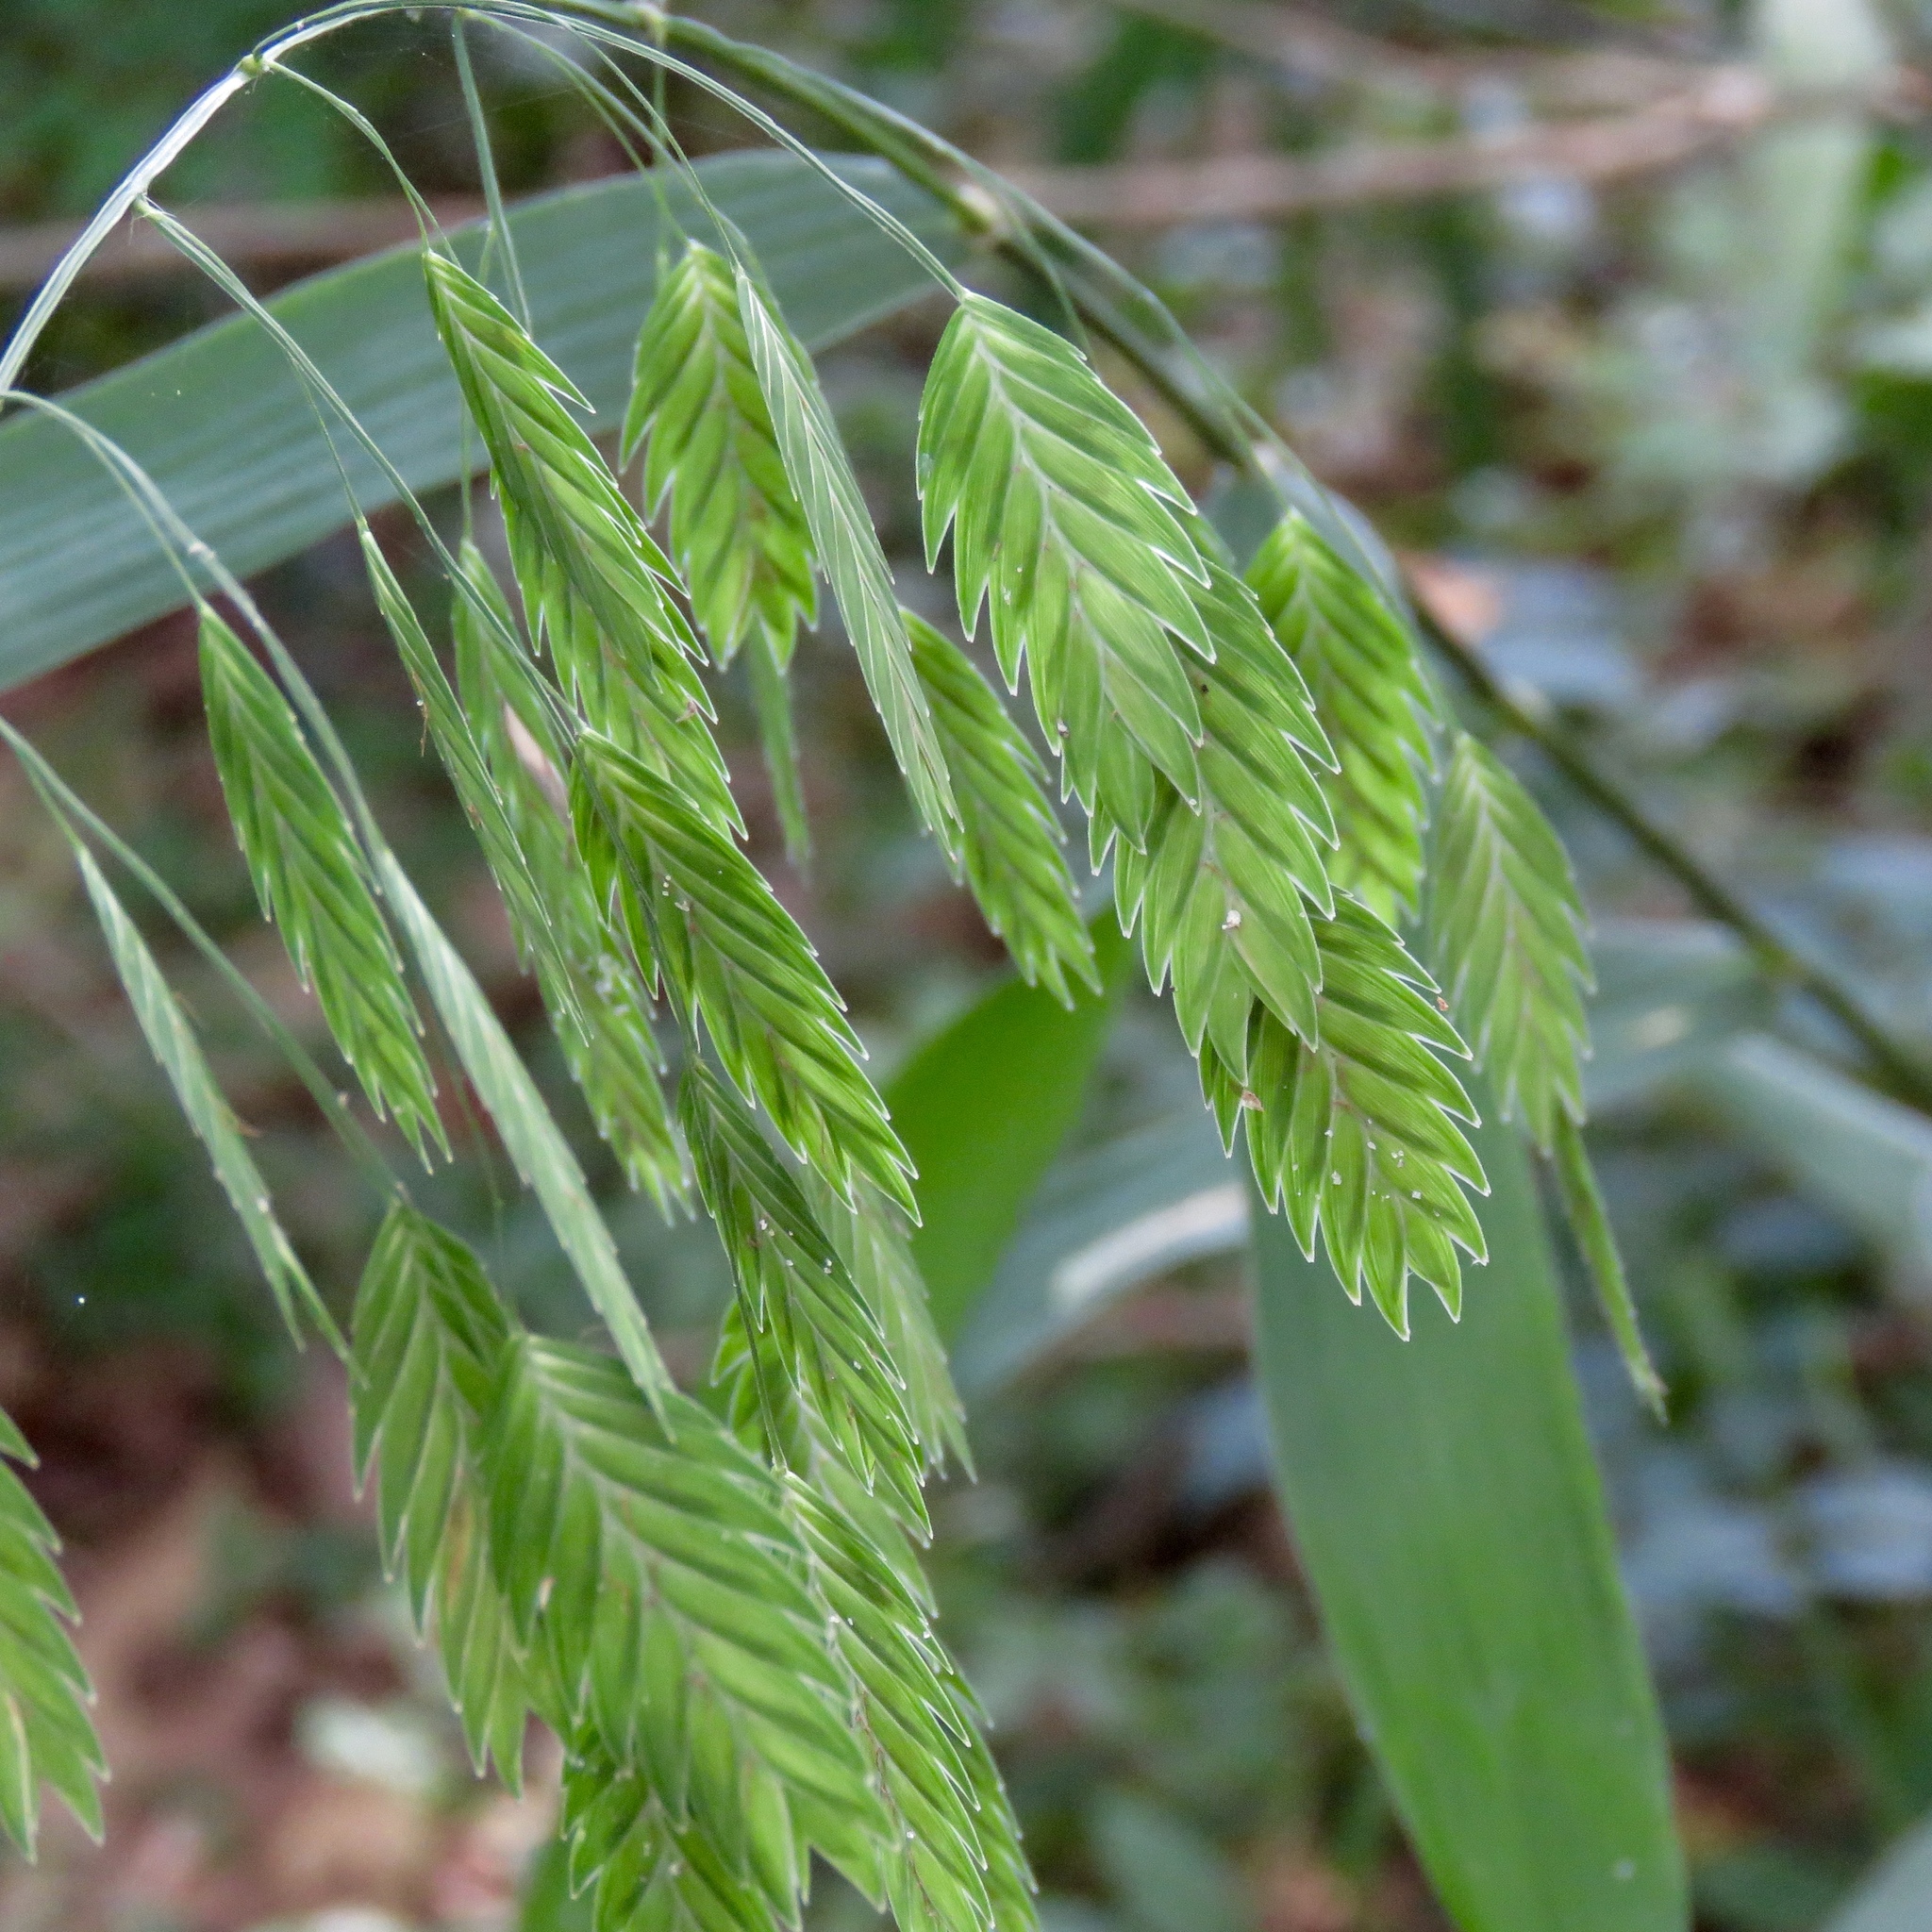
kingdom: Plantae
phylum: Tracheophyta
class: Liliopsida
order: Poales
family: Poaceae
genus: Chasmanthium
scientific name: Chasmanthium latifolium
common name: Broad-leaved chasmanthium
